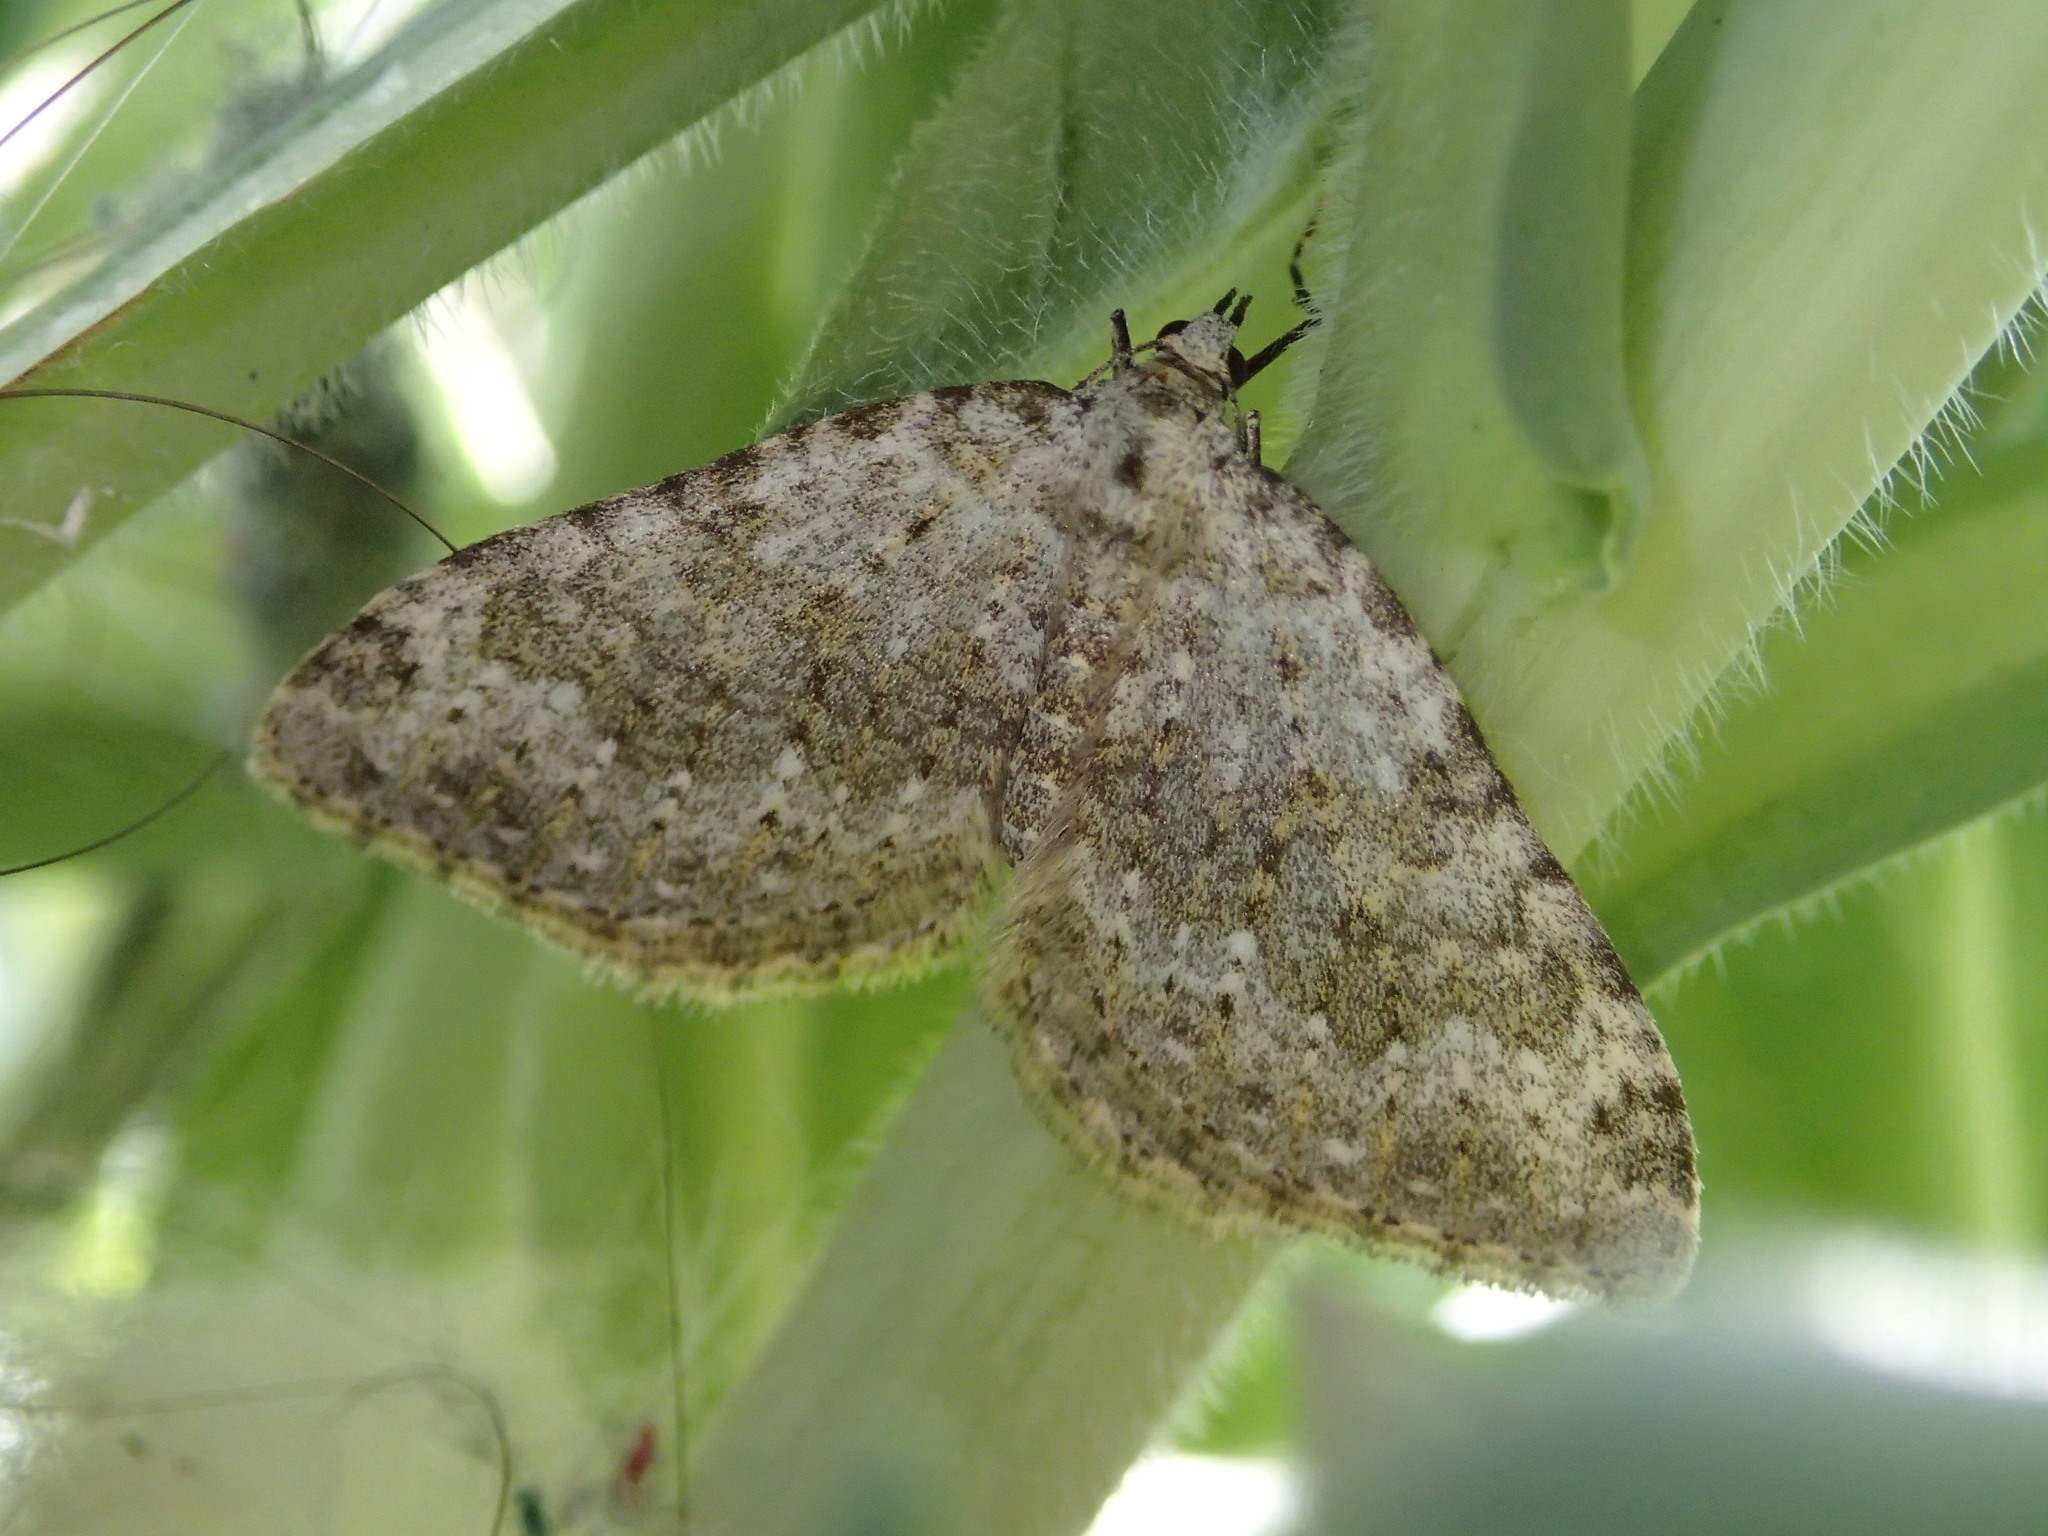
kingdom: Animalia
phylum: Arthropoda
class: Insecta
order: Lepidoptera
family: Geometridae
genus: Nebula
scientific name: Nebula salicata
